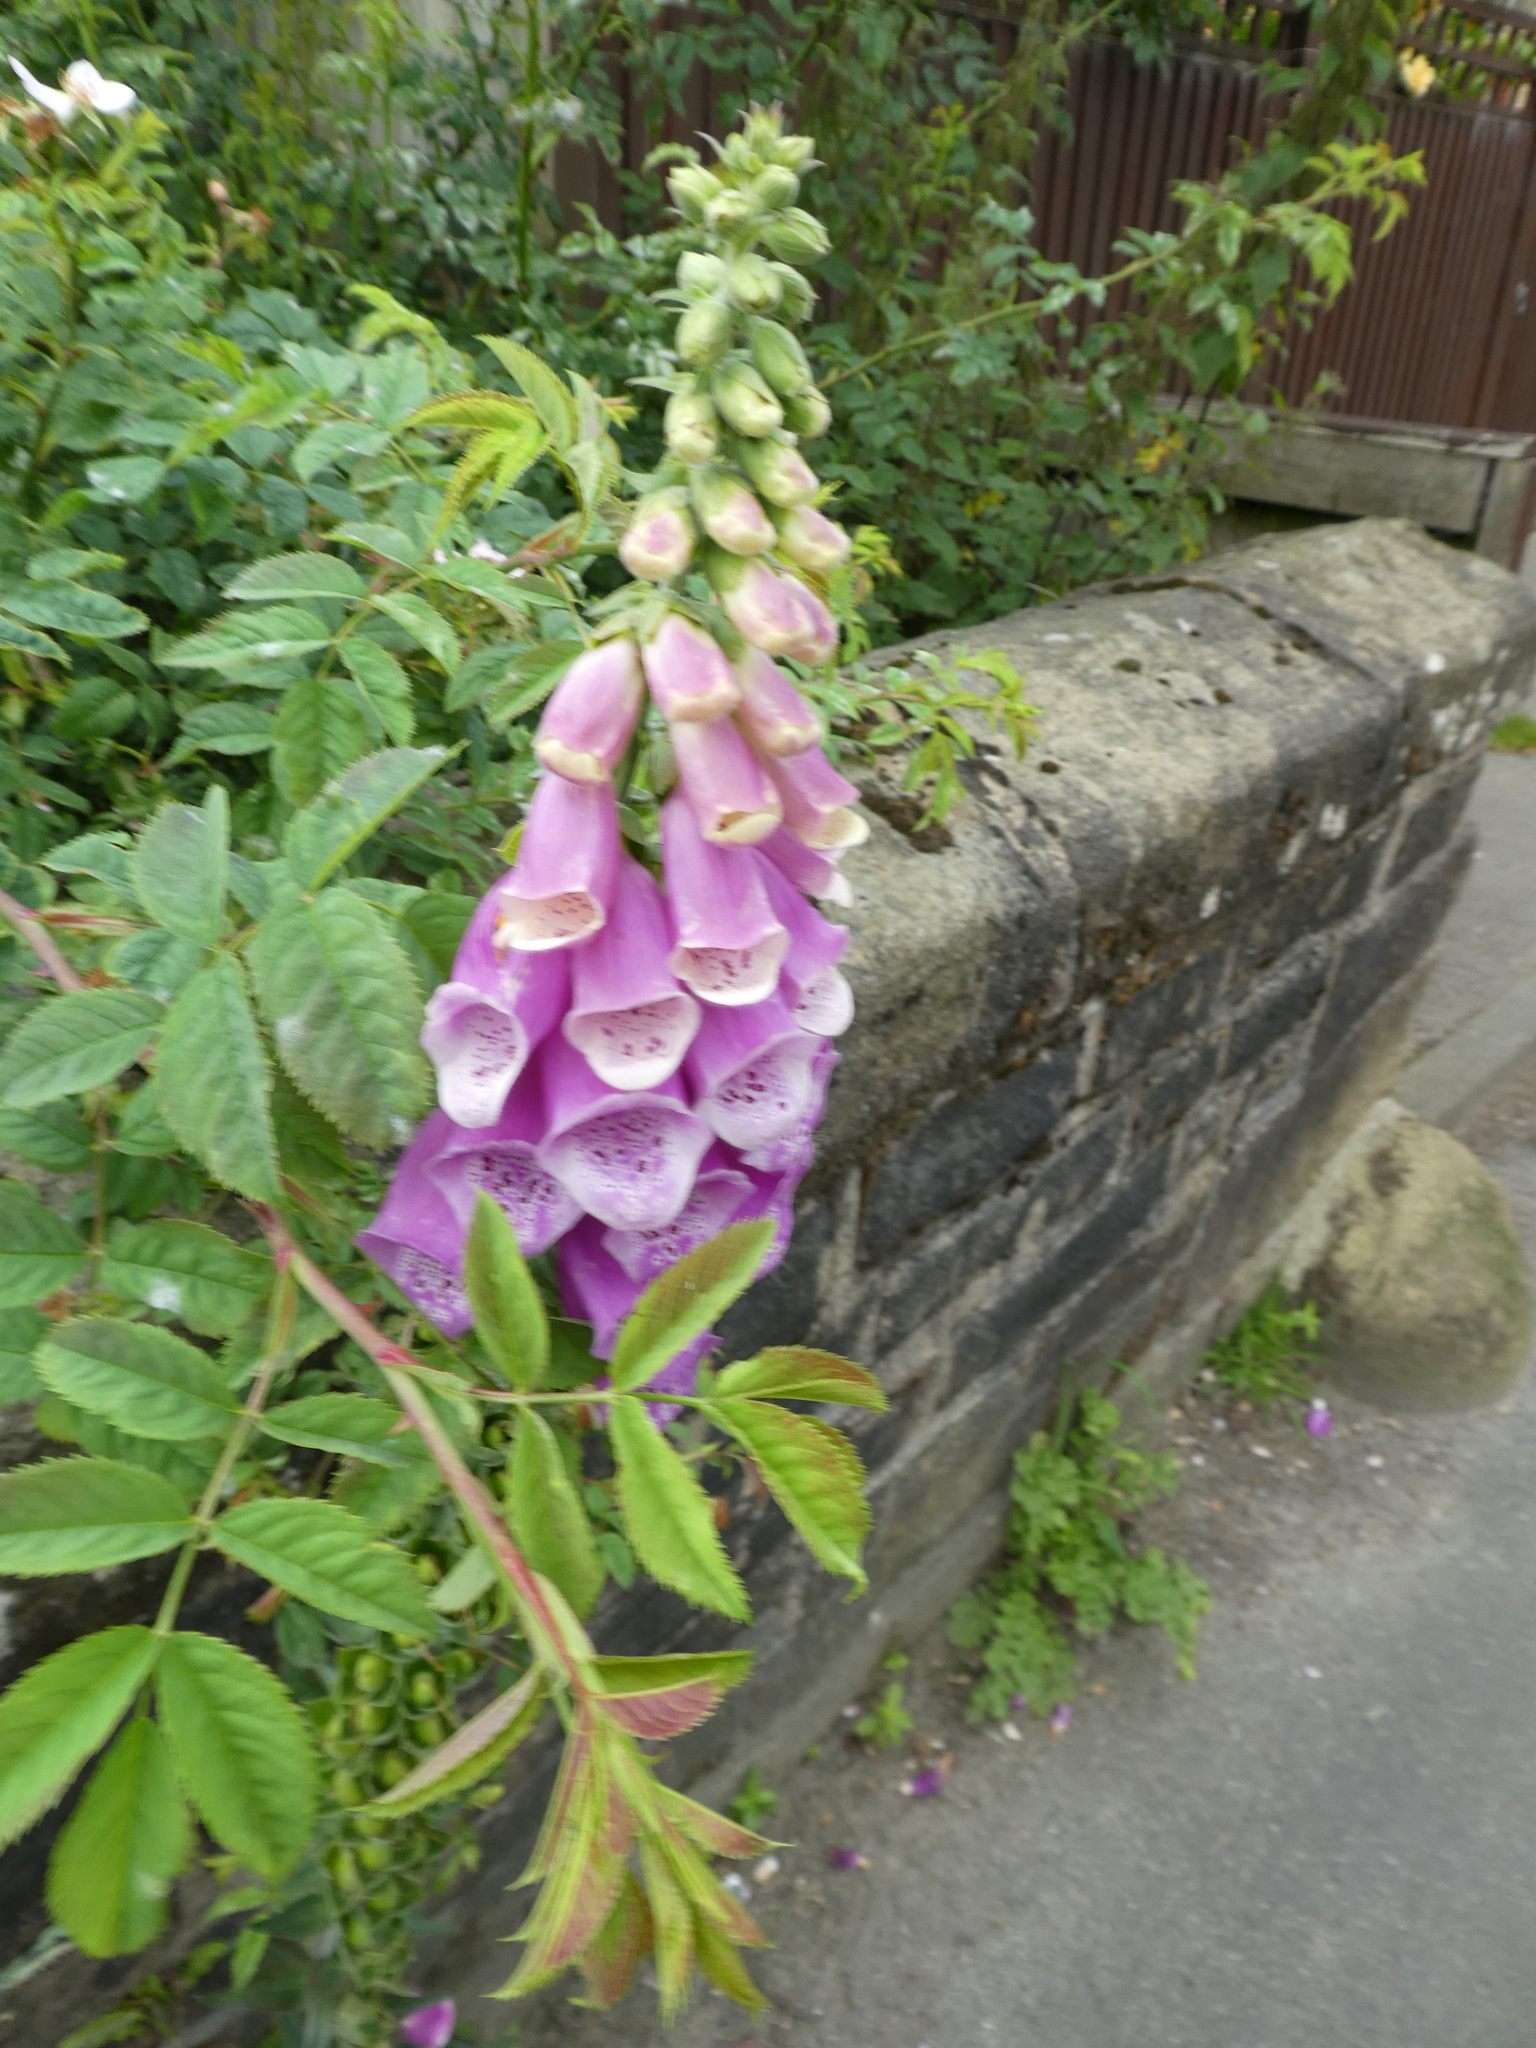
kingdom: Plantae
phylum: Tracheophyta
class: Magnoliopsida
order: Lamiales
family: Plantaginaceae
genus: Digitalis
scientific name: Digitalis purpurea
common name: Foxglove
